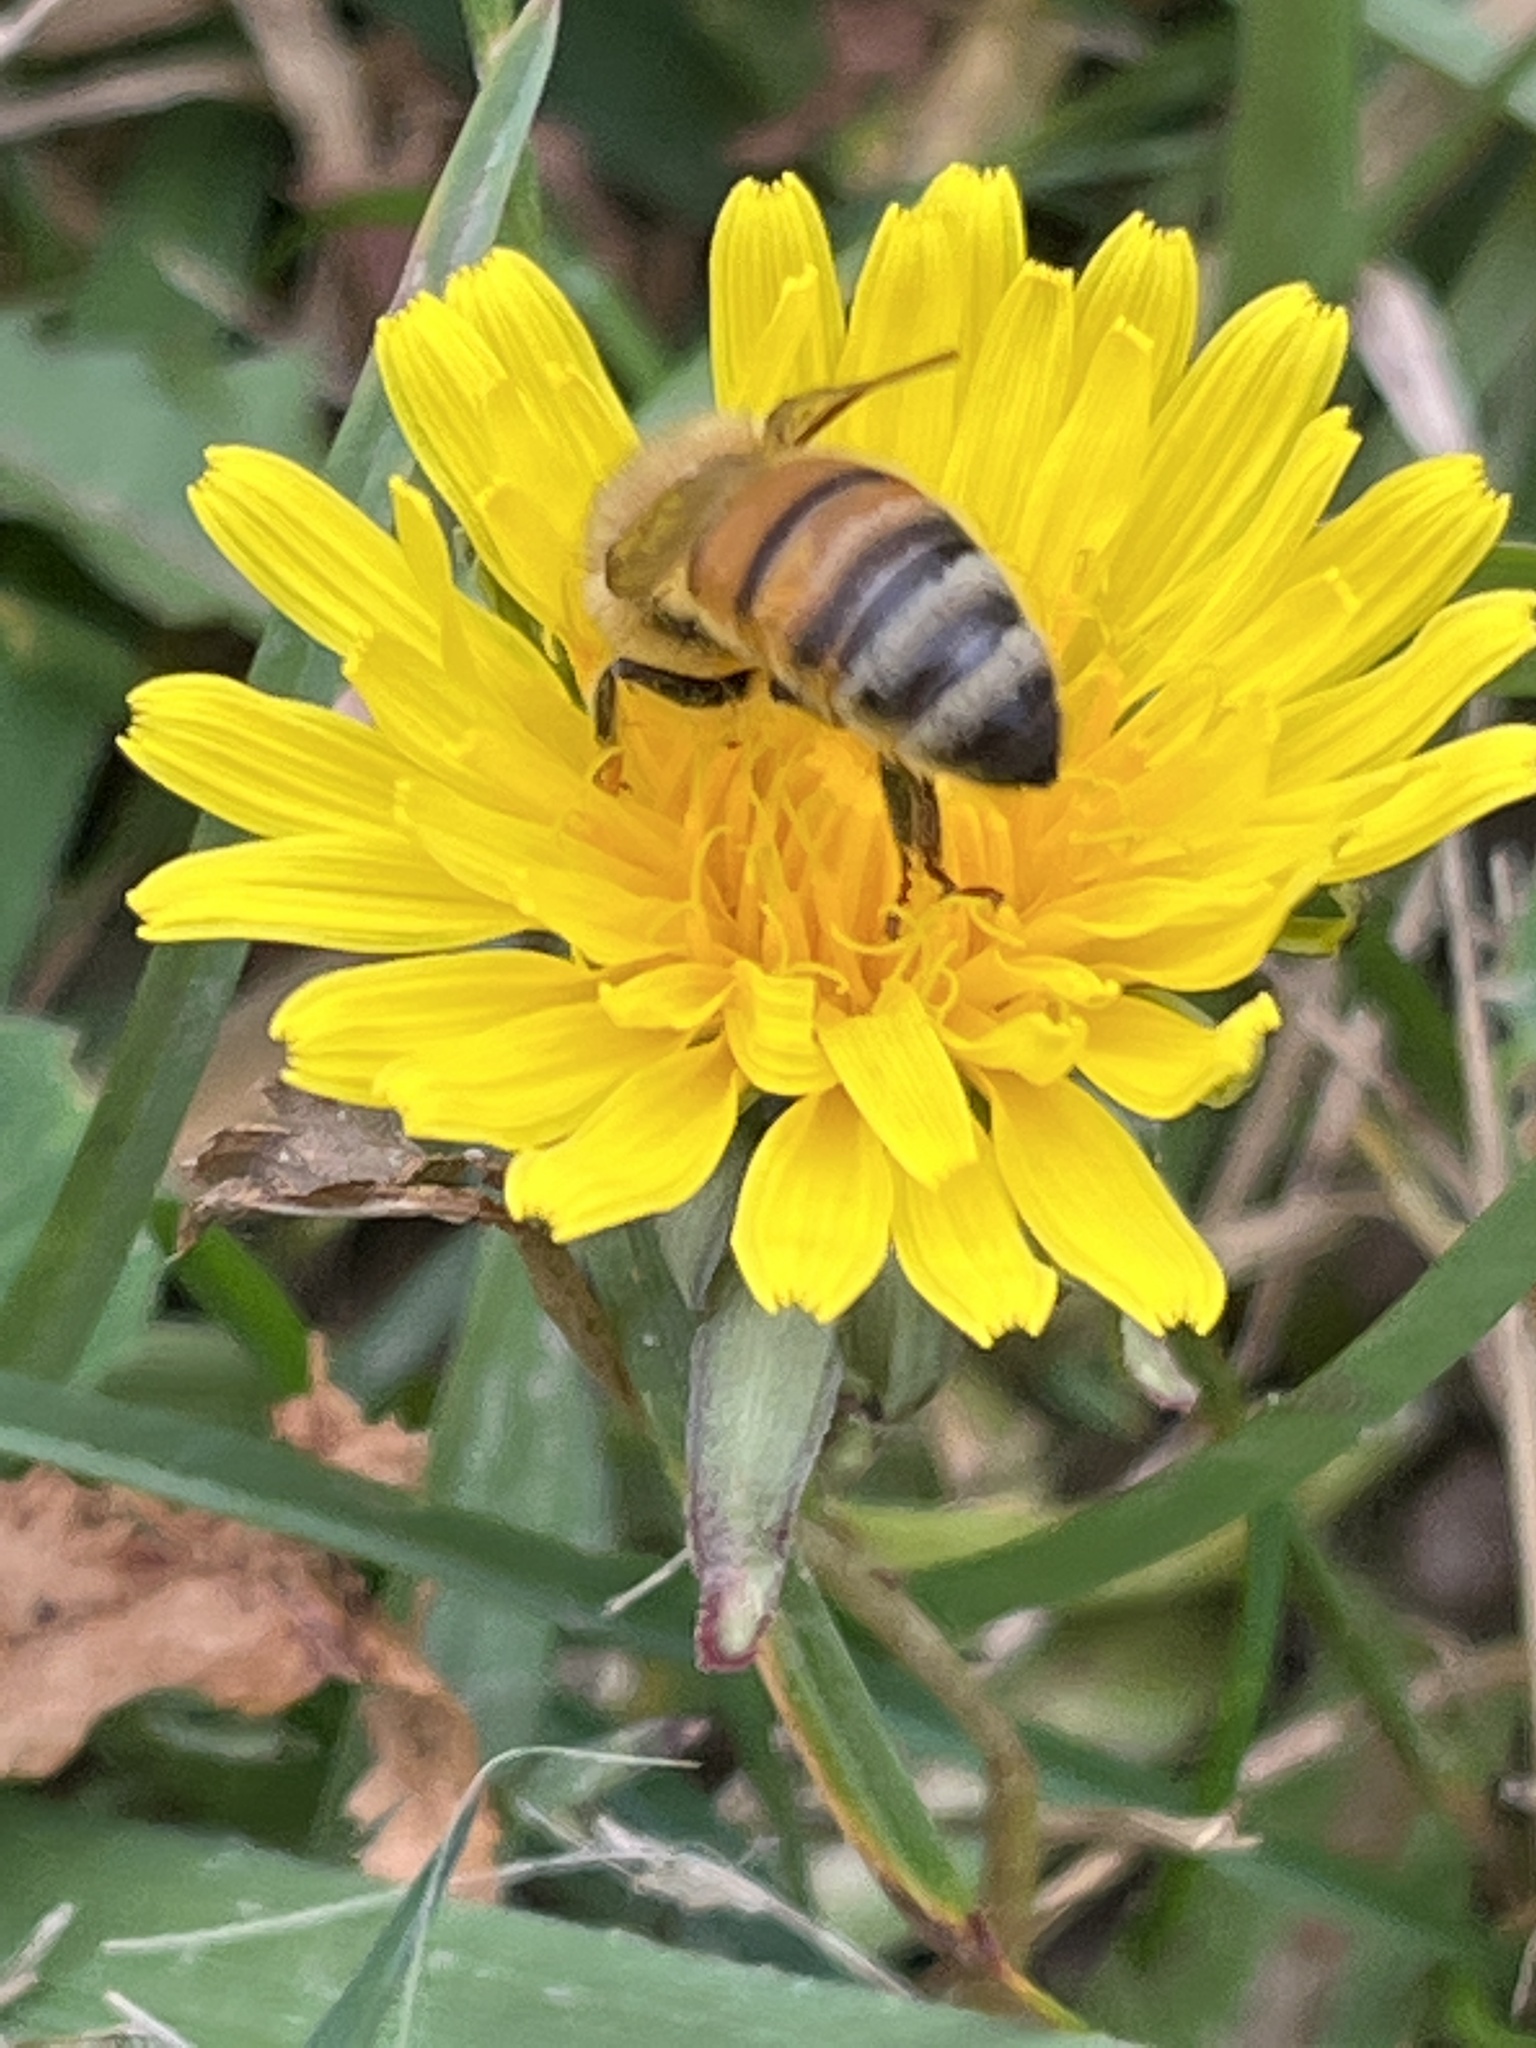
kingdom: Animalia
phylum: Arthropoda
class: Insecta
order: Hymenoptera
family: Apidae
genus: Apis
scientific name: Apis mellifera
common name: Honey bee
